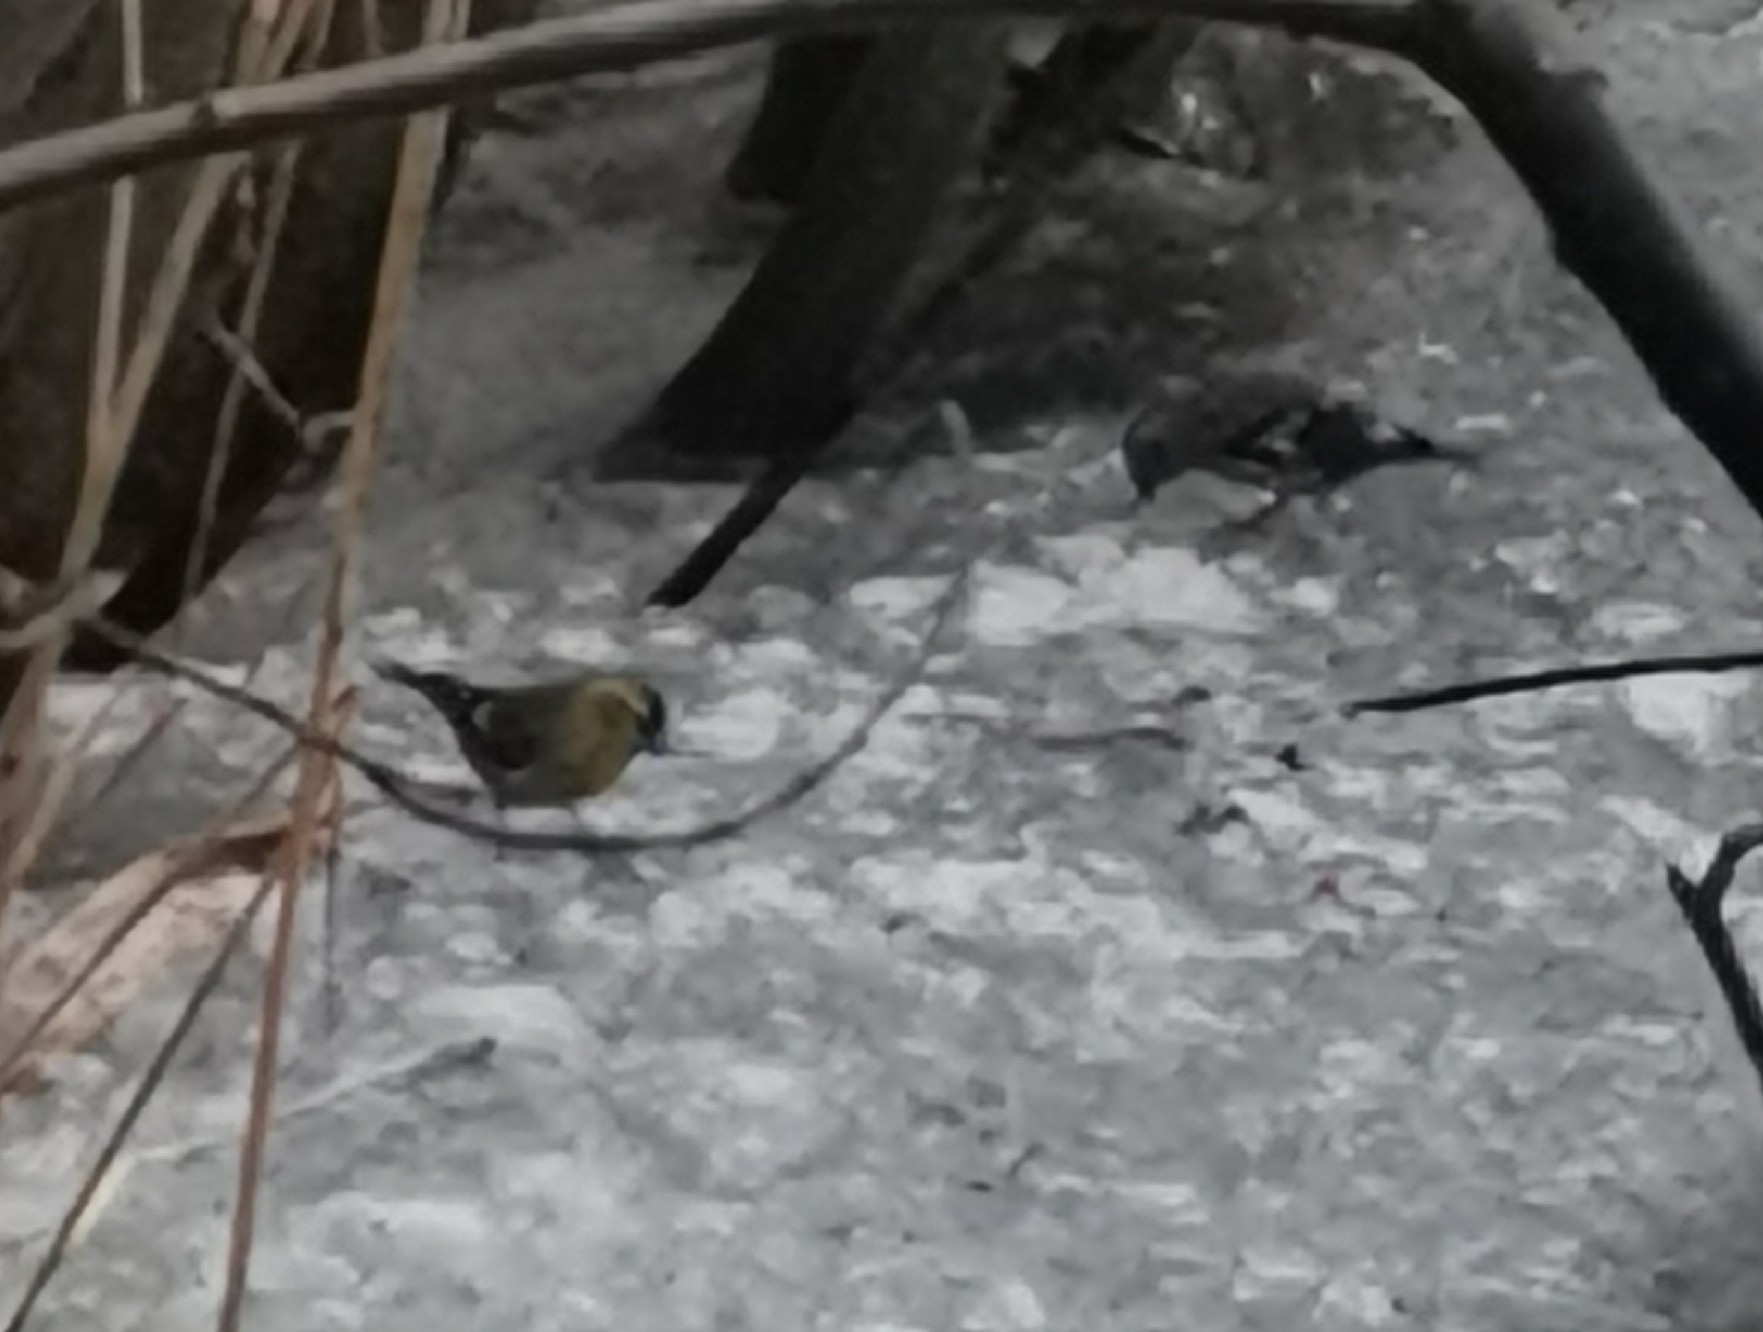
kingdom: Animalia
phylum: Chordata
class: Aves
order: Passeriformes
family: Fringillidae
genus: Spinus
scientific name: Spinus spinus
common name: Eurasian siskin
